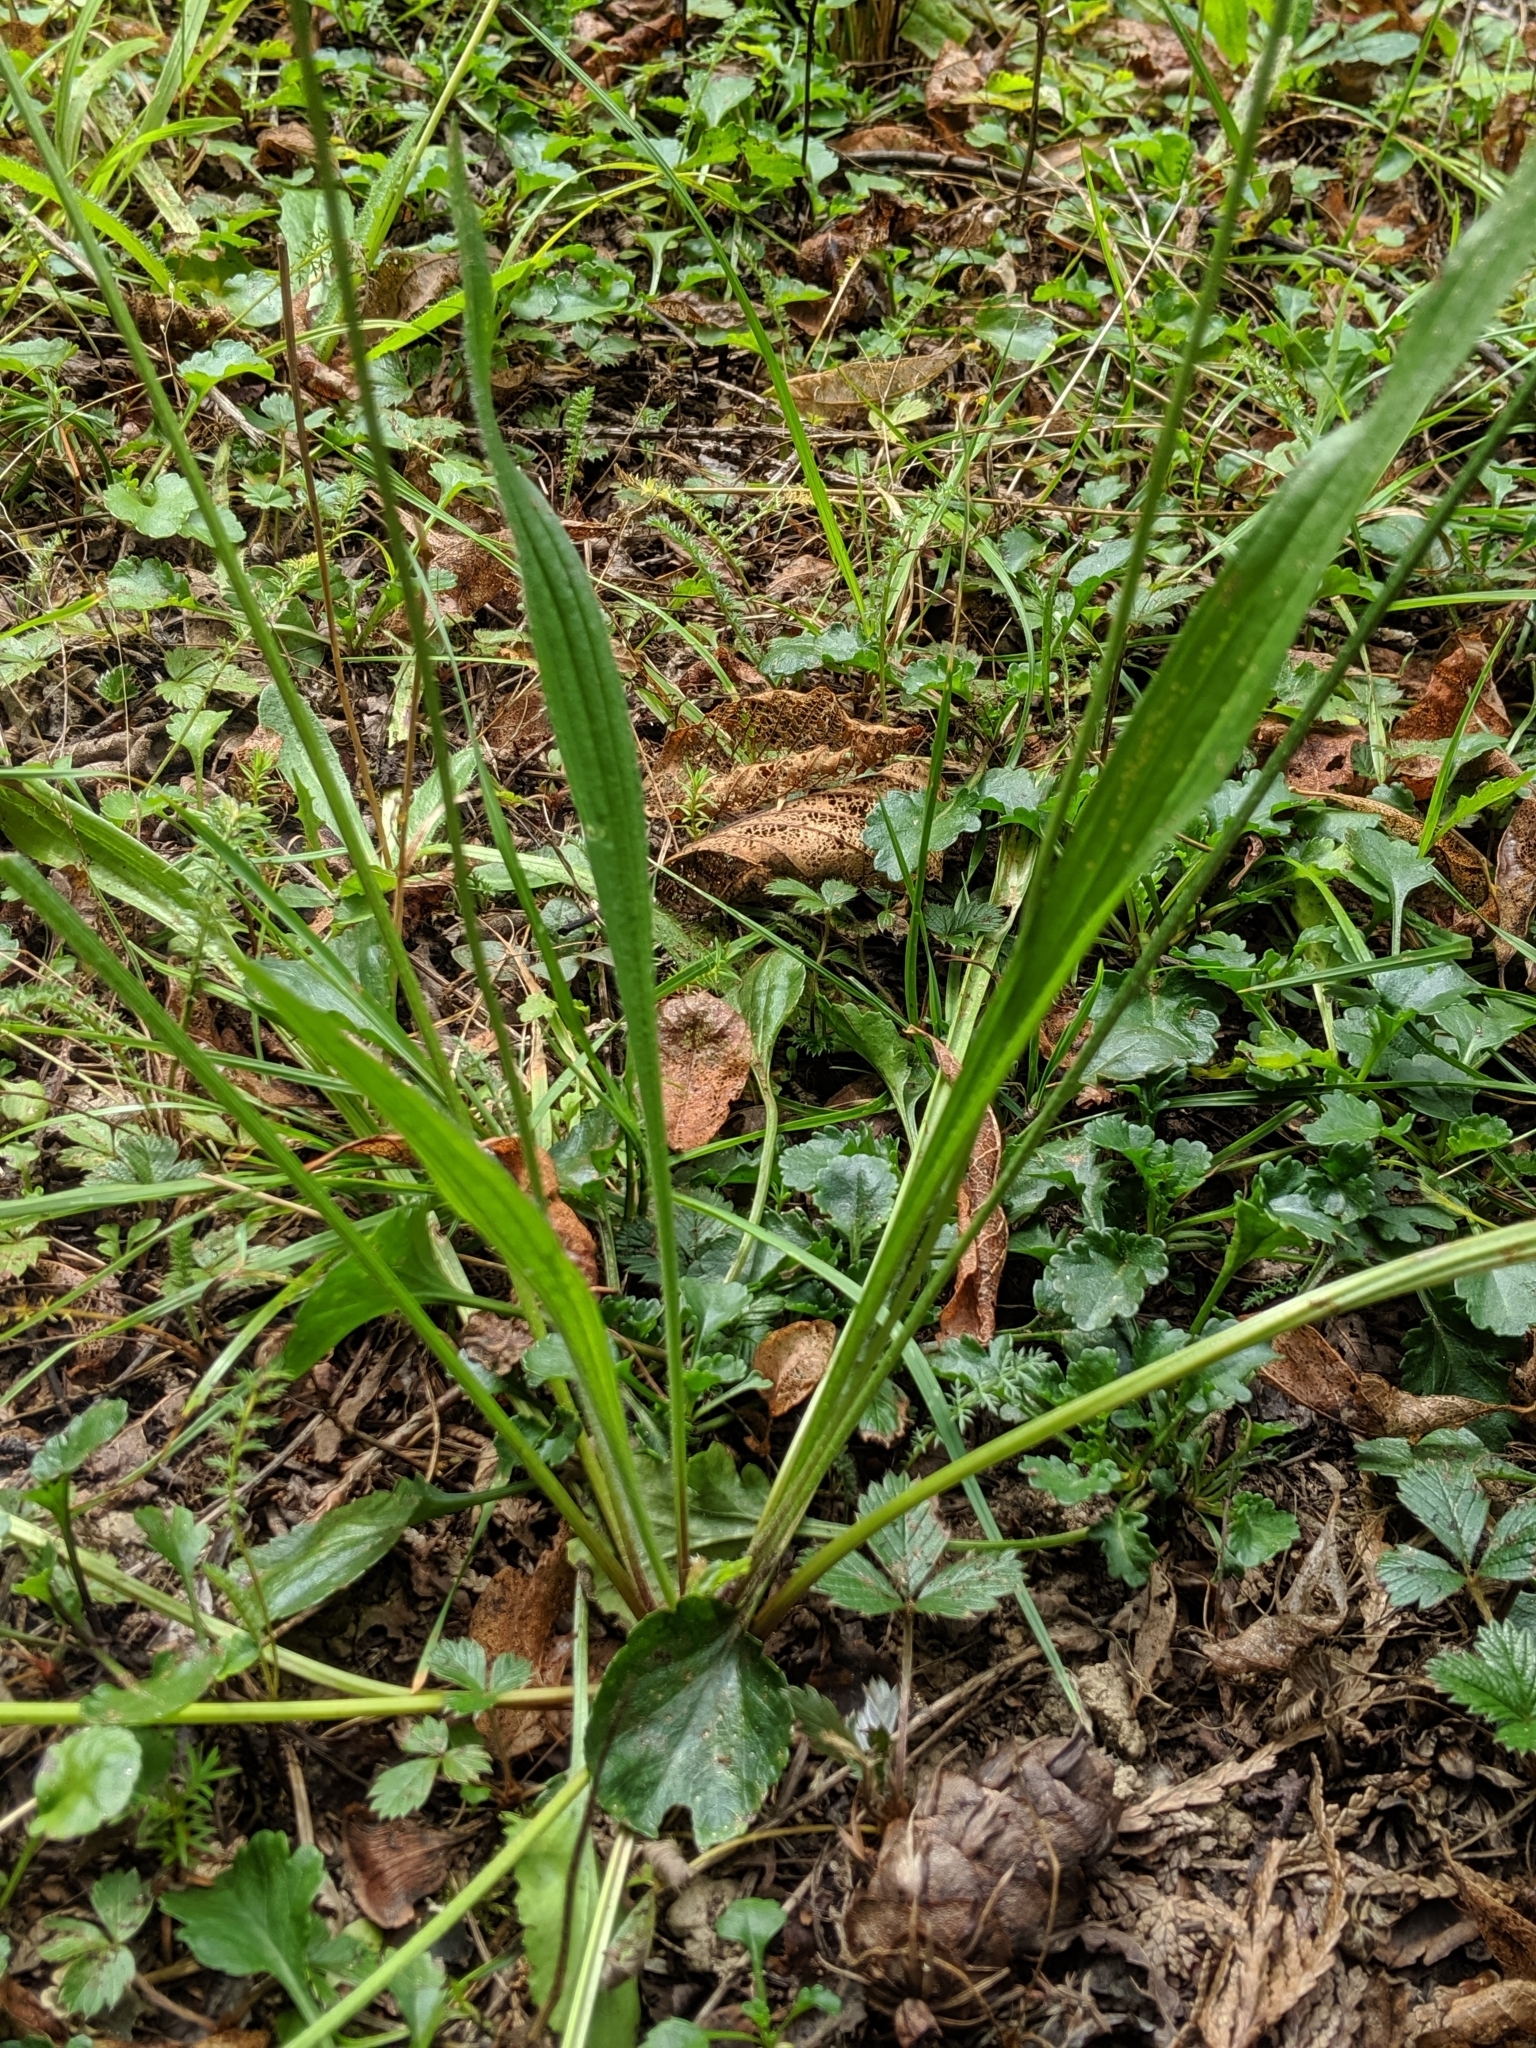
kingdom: Plantae
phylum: Tracheophyta
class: Magnoliopsida
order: Lamiales
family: Plantaginaceae
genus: Plantago
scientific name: Plantago lanceolata
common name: Ribwort plantain
